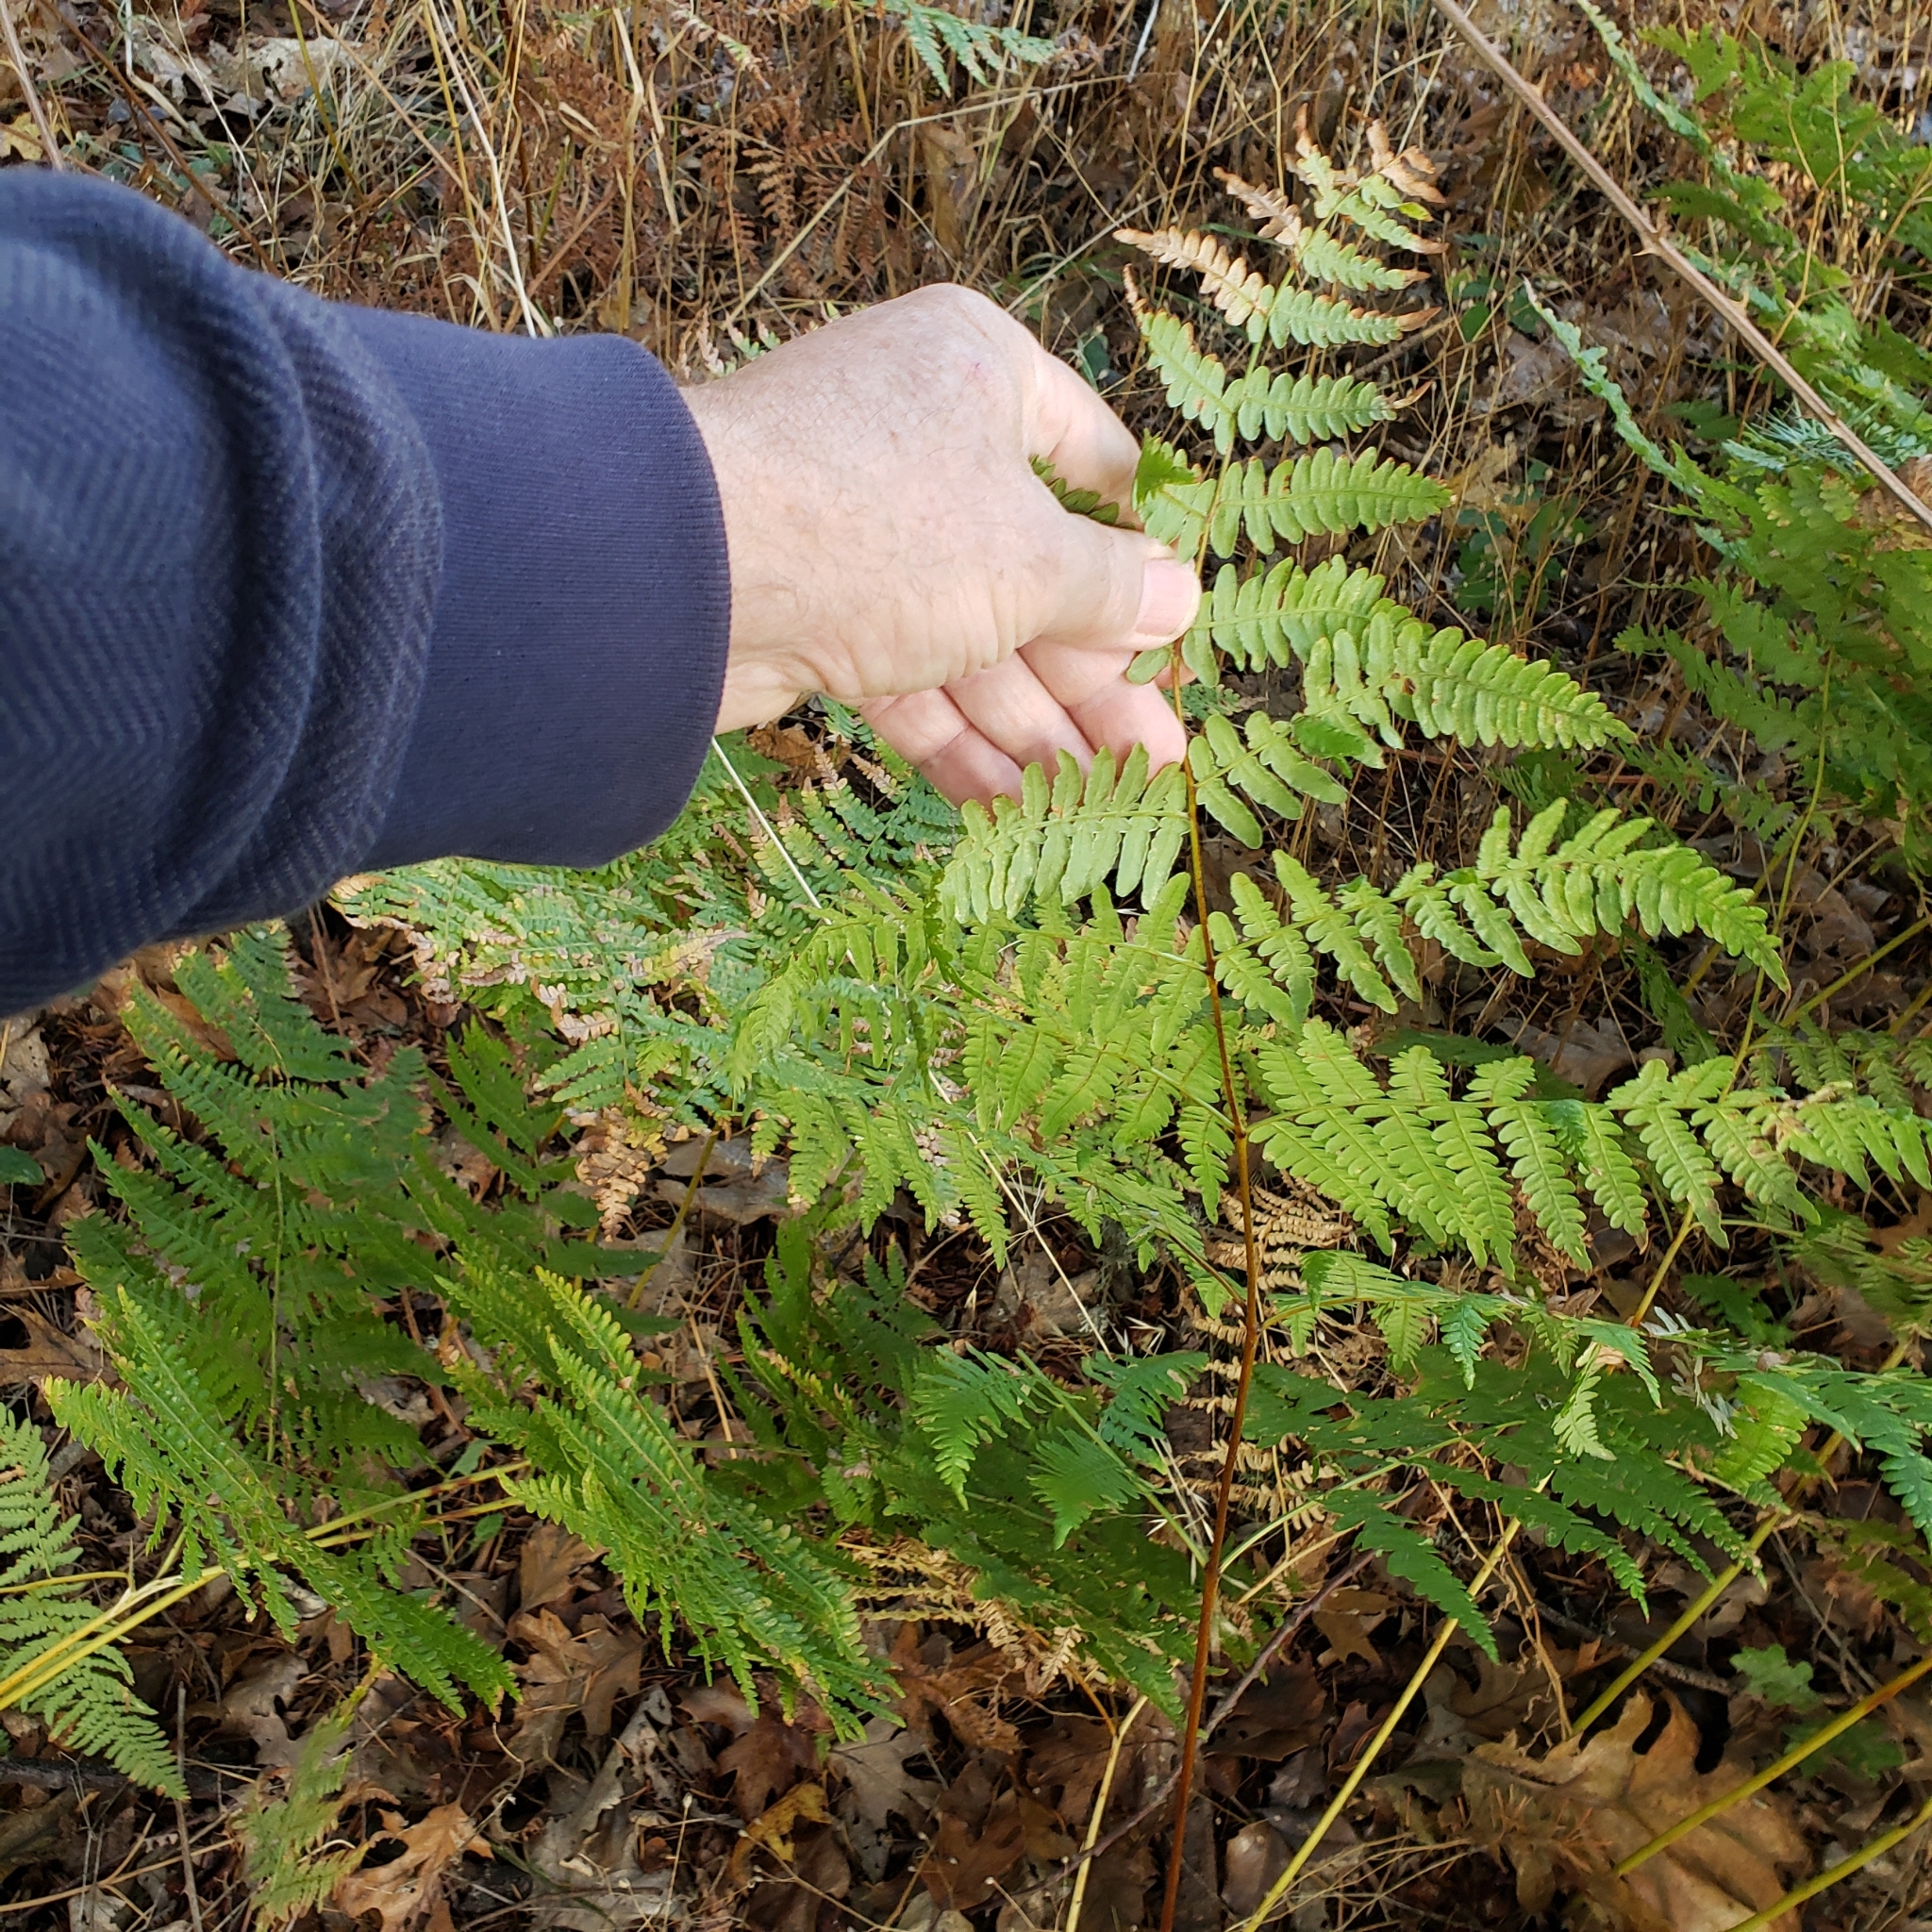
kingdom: Plantae
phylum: Tracheophyta
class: Polypodiopsida
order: Polypodiales
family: Dennstaedtiaceae
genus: Pteridium
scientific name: Pteridium aquilinum
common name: Bracken
